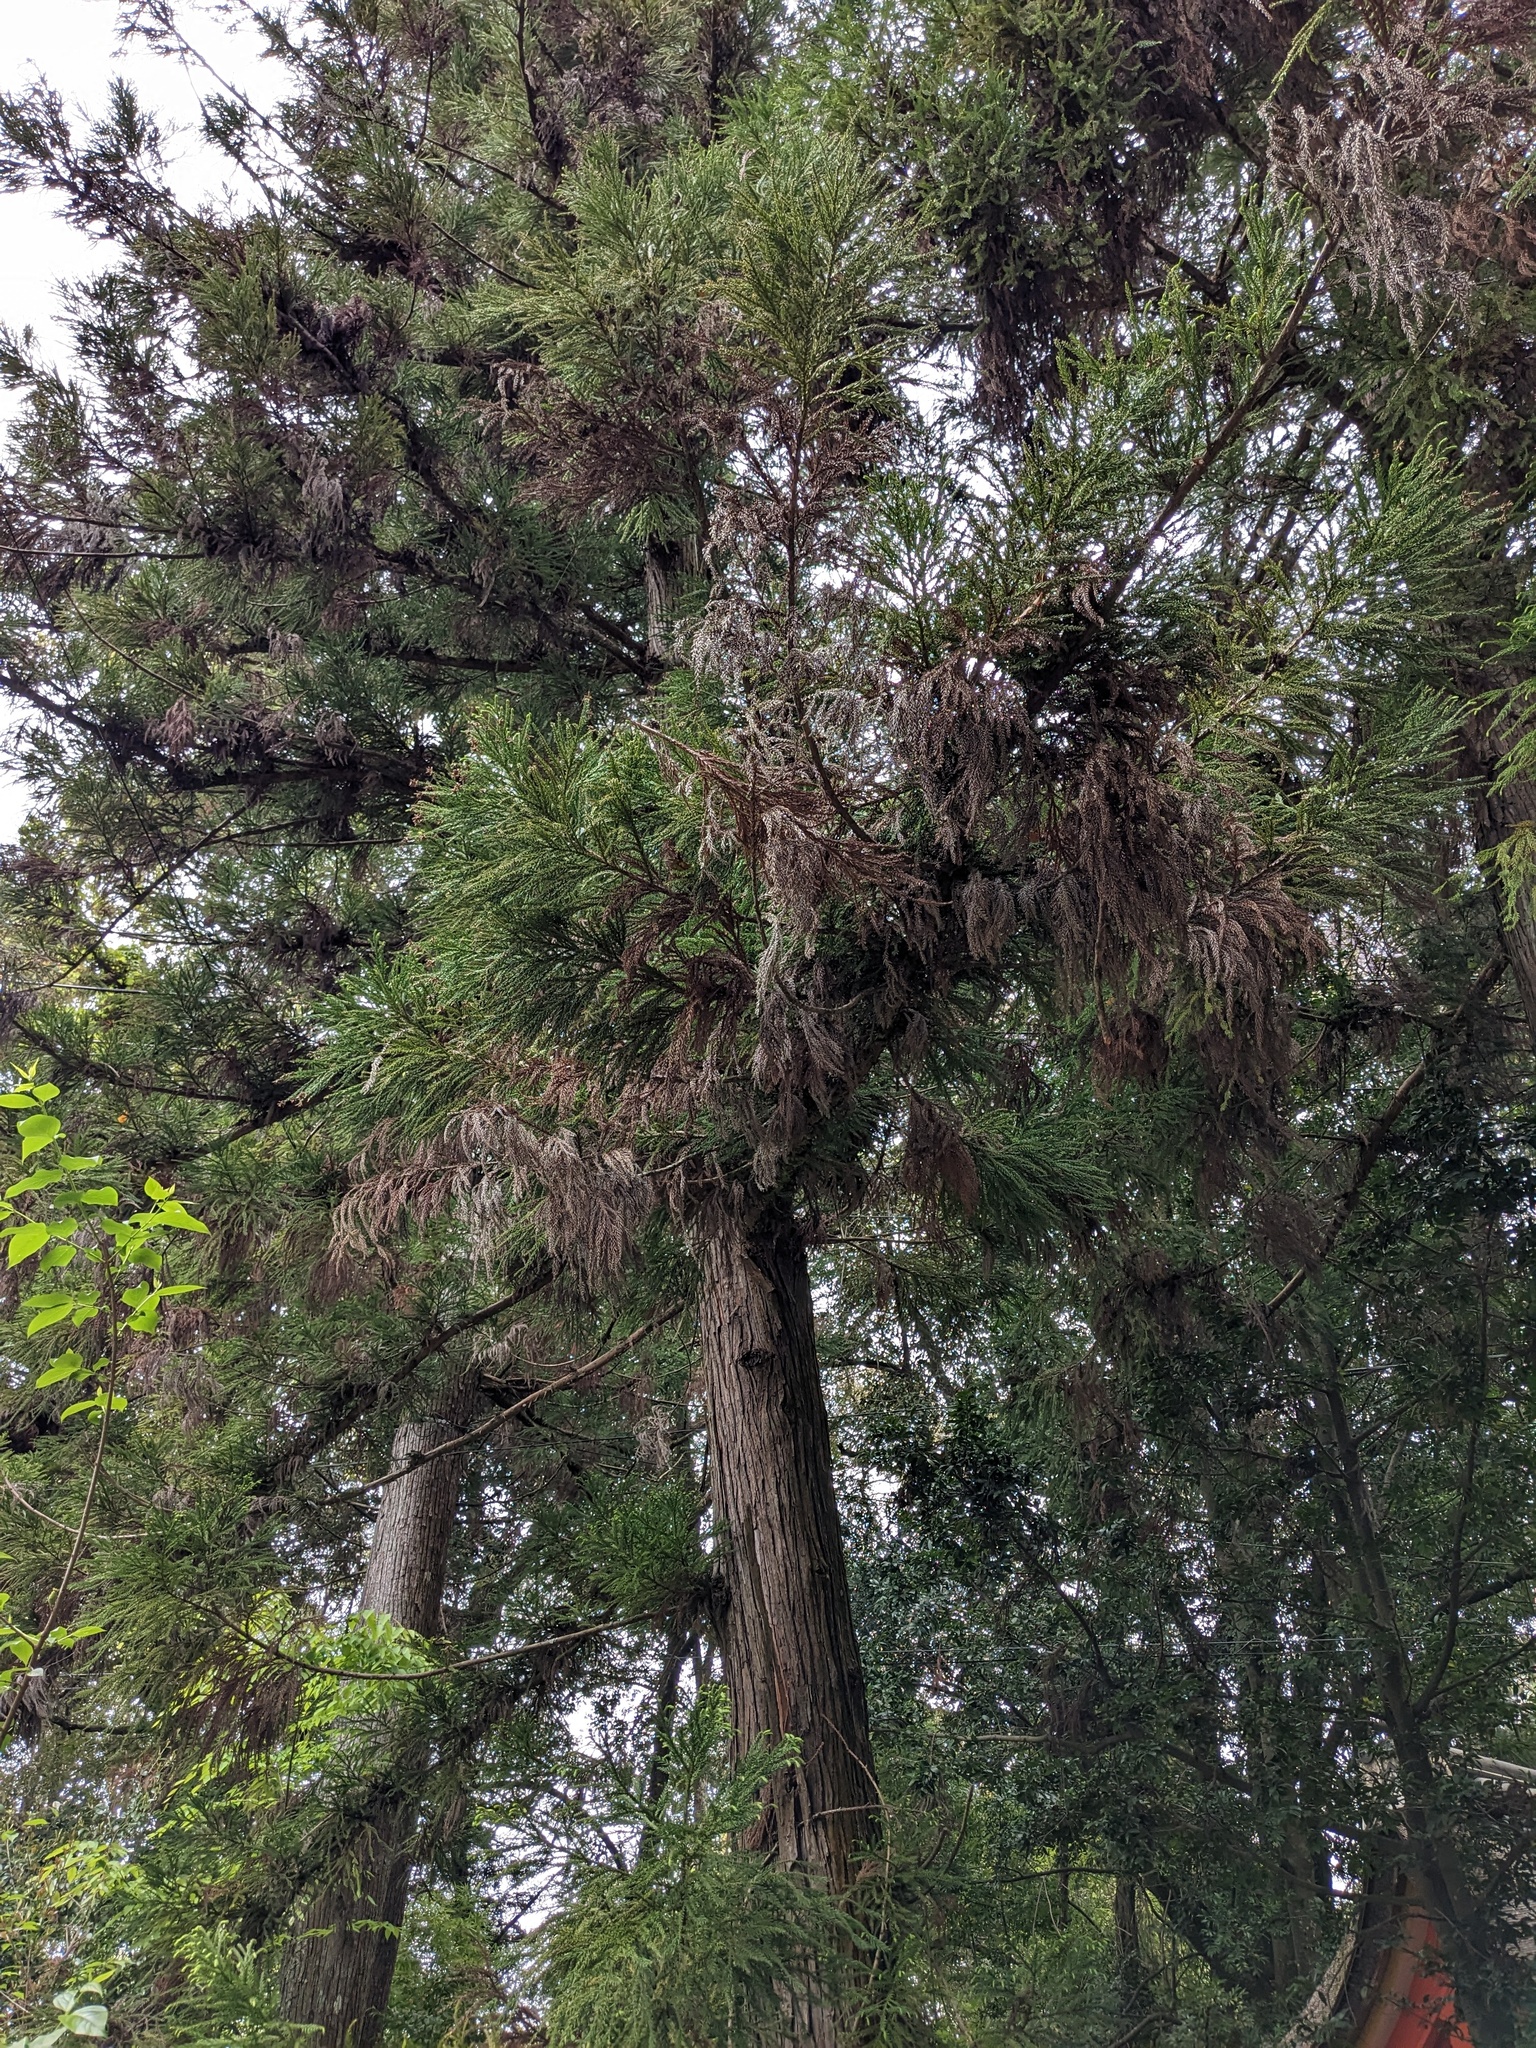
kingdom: Plantae
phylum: Tracheophyta
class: Pinopsida
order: Pinales
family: Cupressaceae
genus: Cryptomeria
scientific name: Cryptomeria japonica
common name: Japanese cedar
